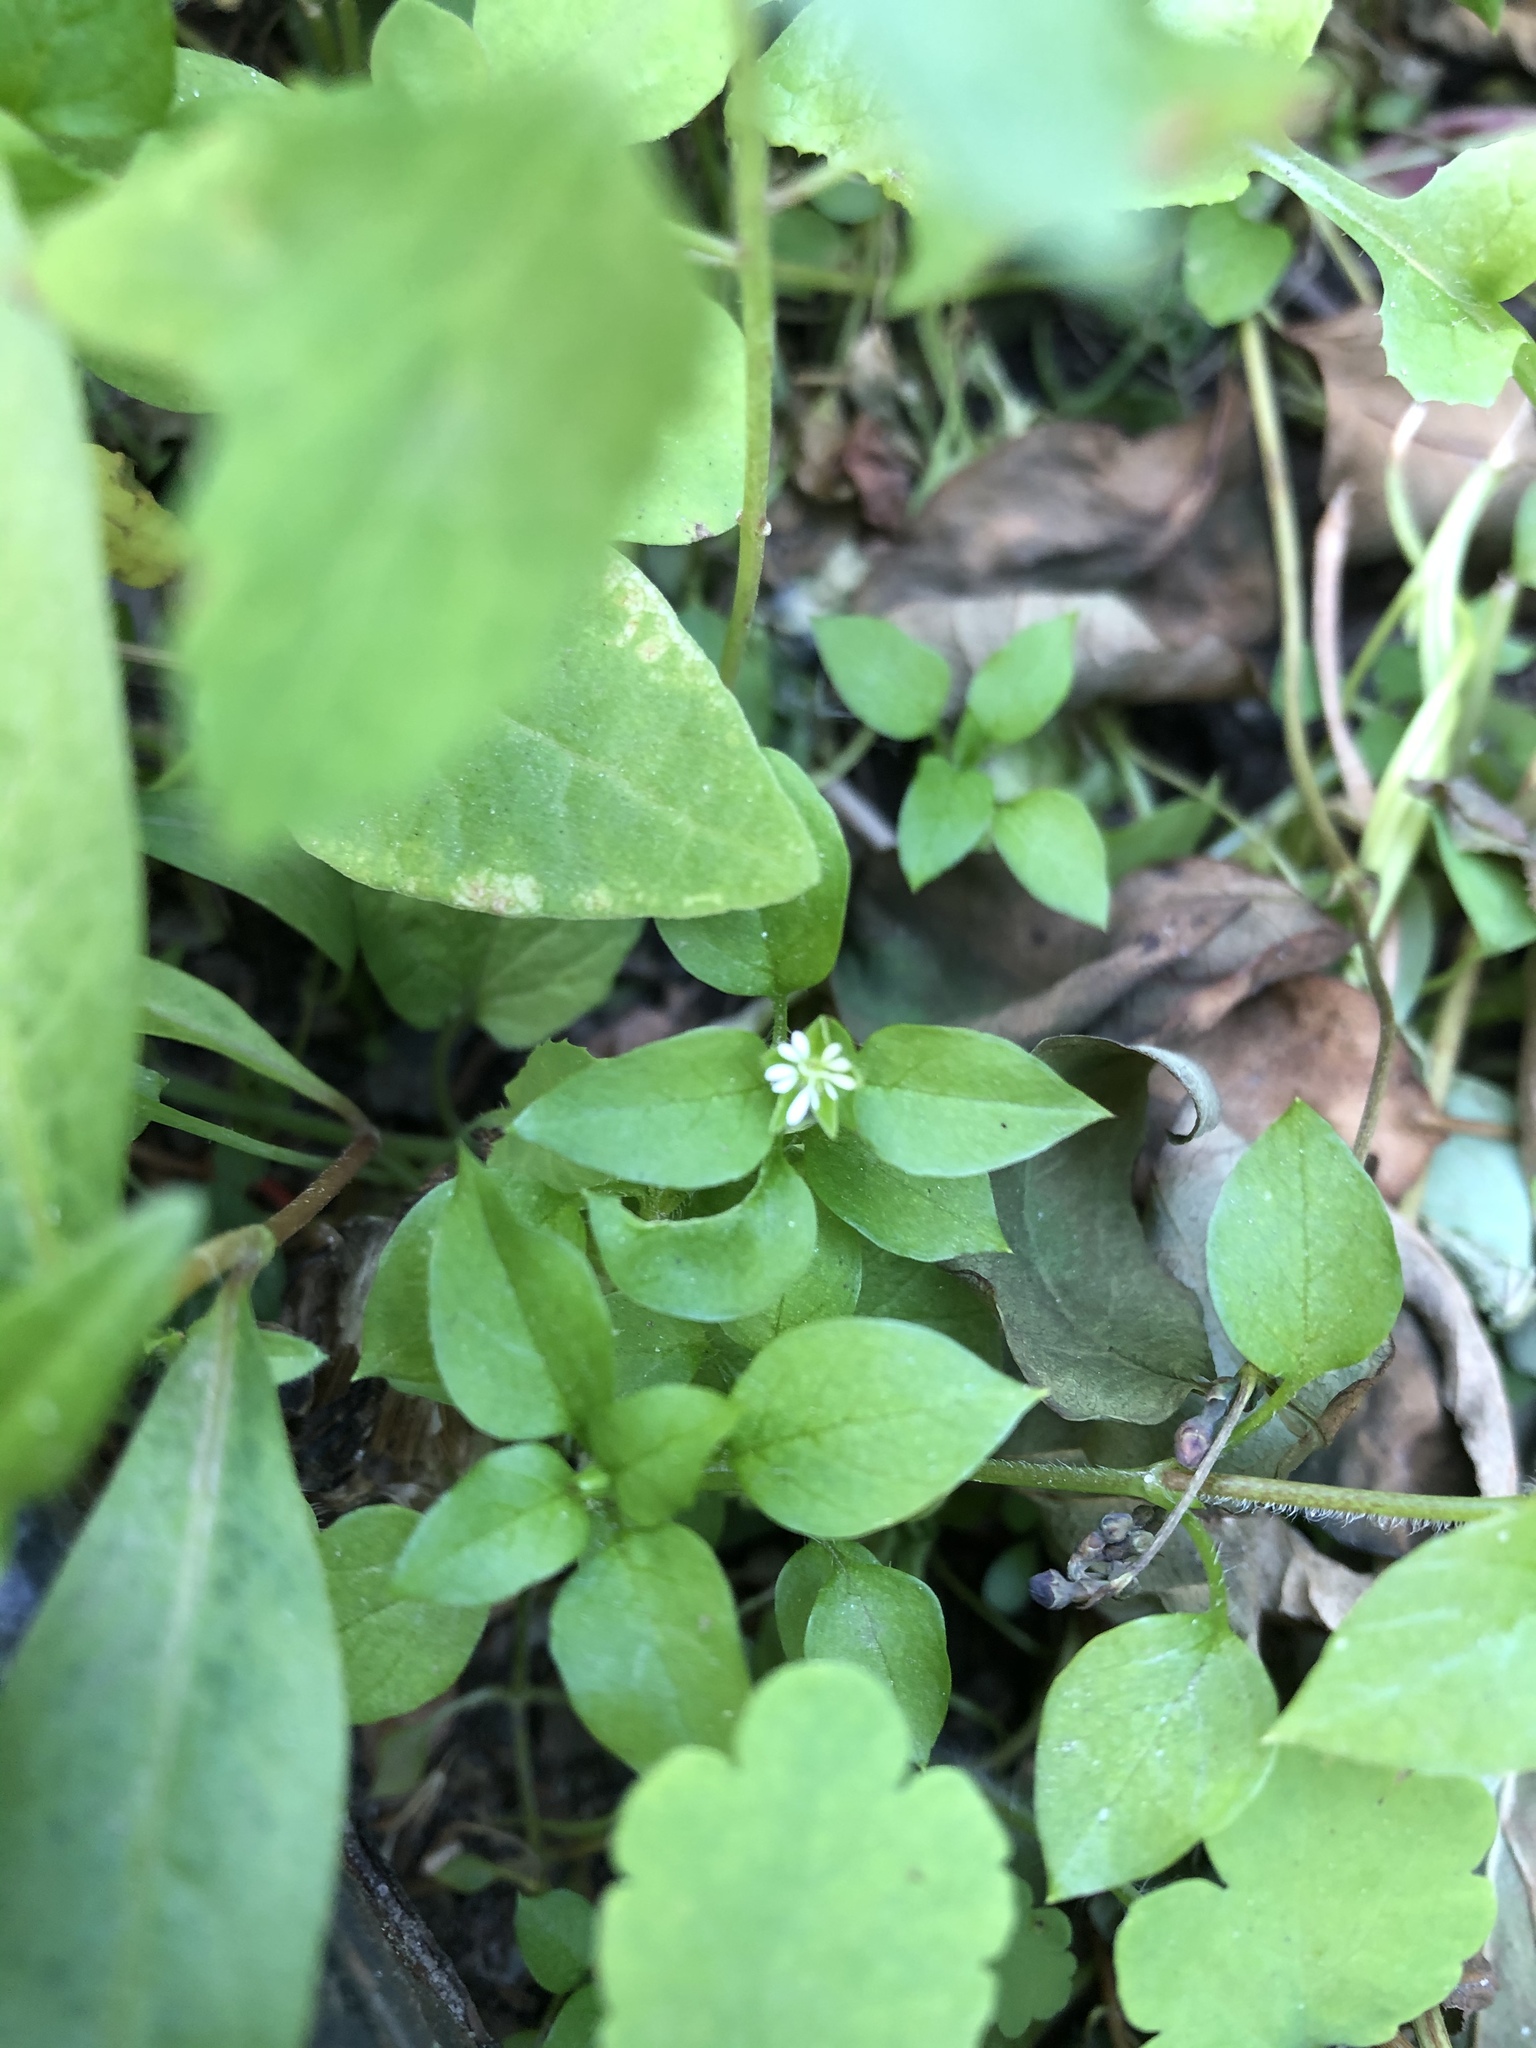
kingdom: Plantae
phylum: Tracheophyta
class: Magnoliopsida
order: Caryophyllales
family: Caryophyllaceae
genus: Stellaria
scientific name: Stellaria media
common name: Common chickweed
